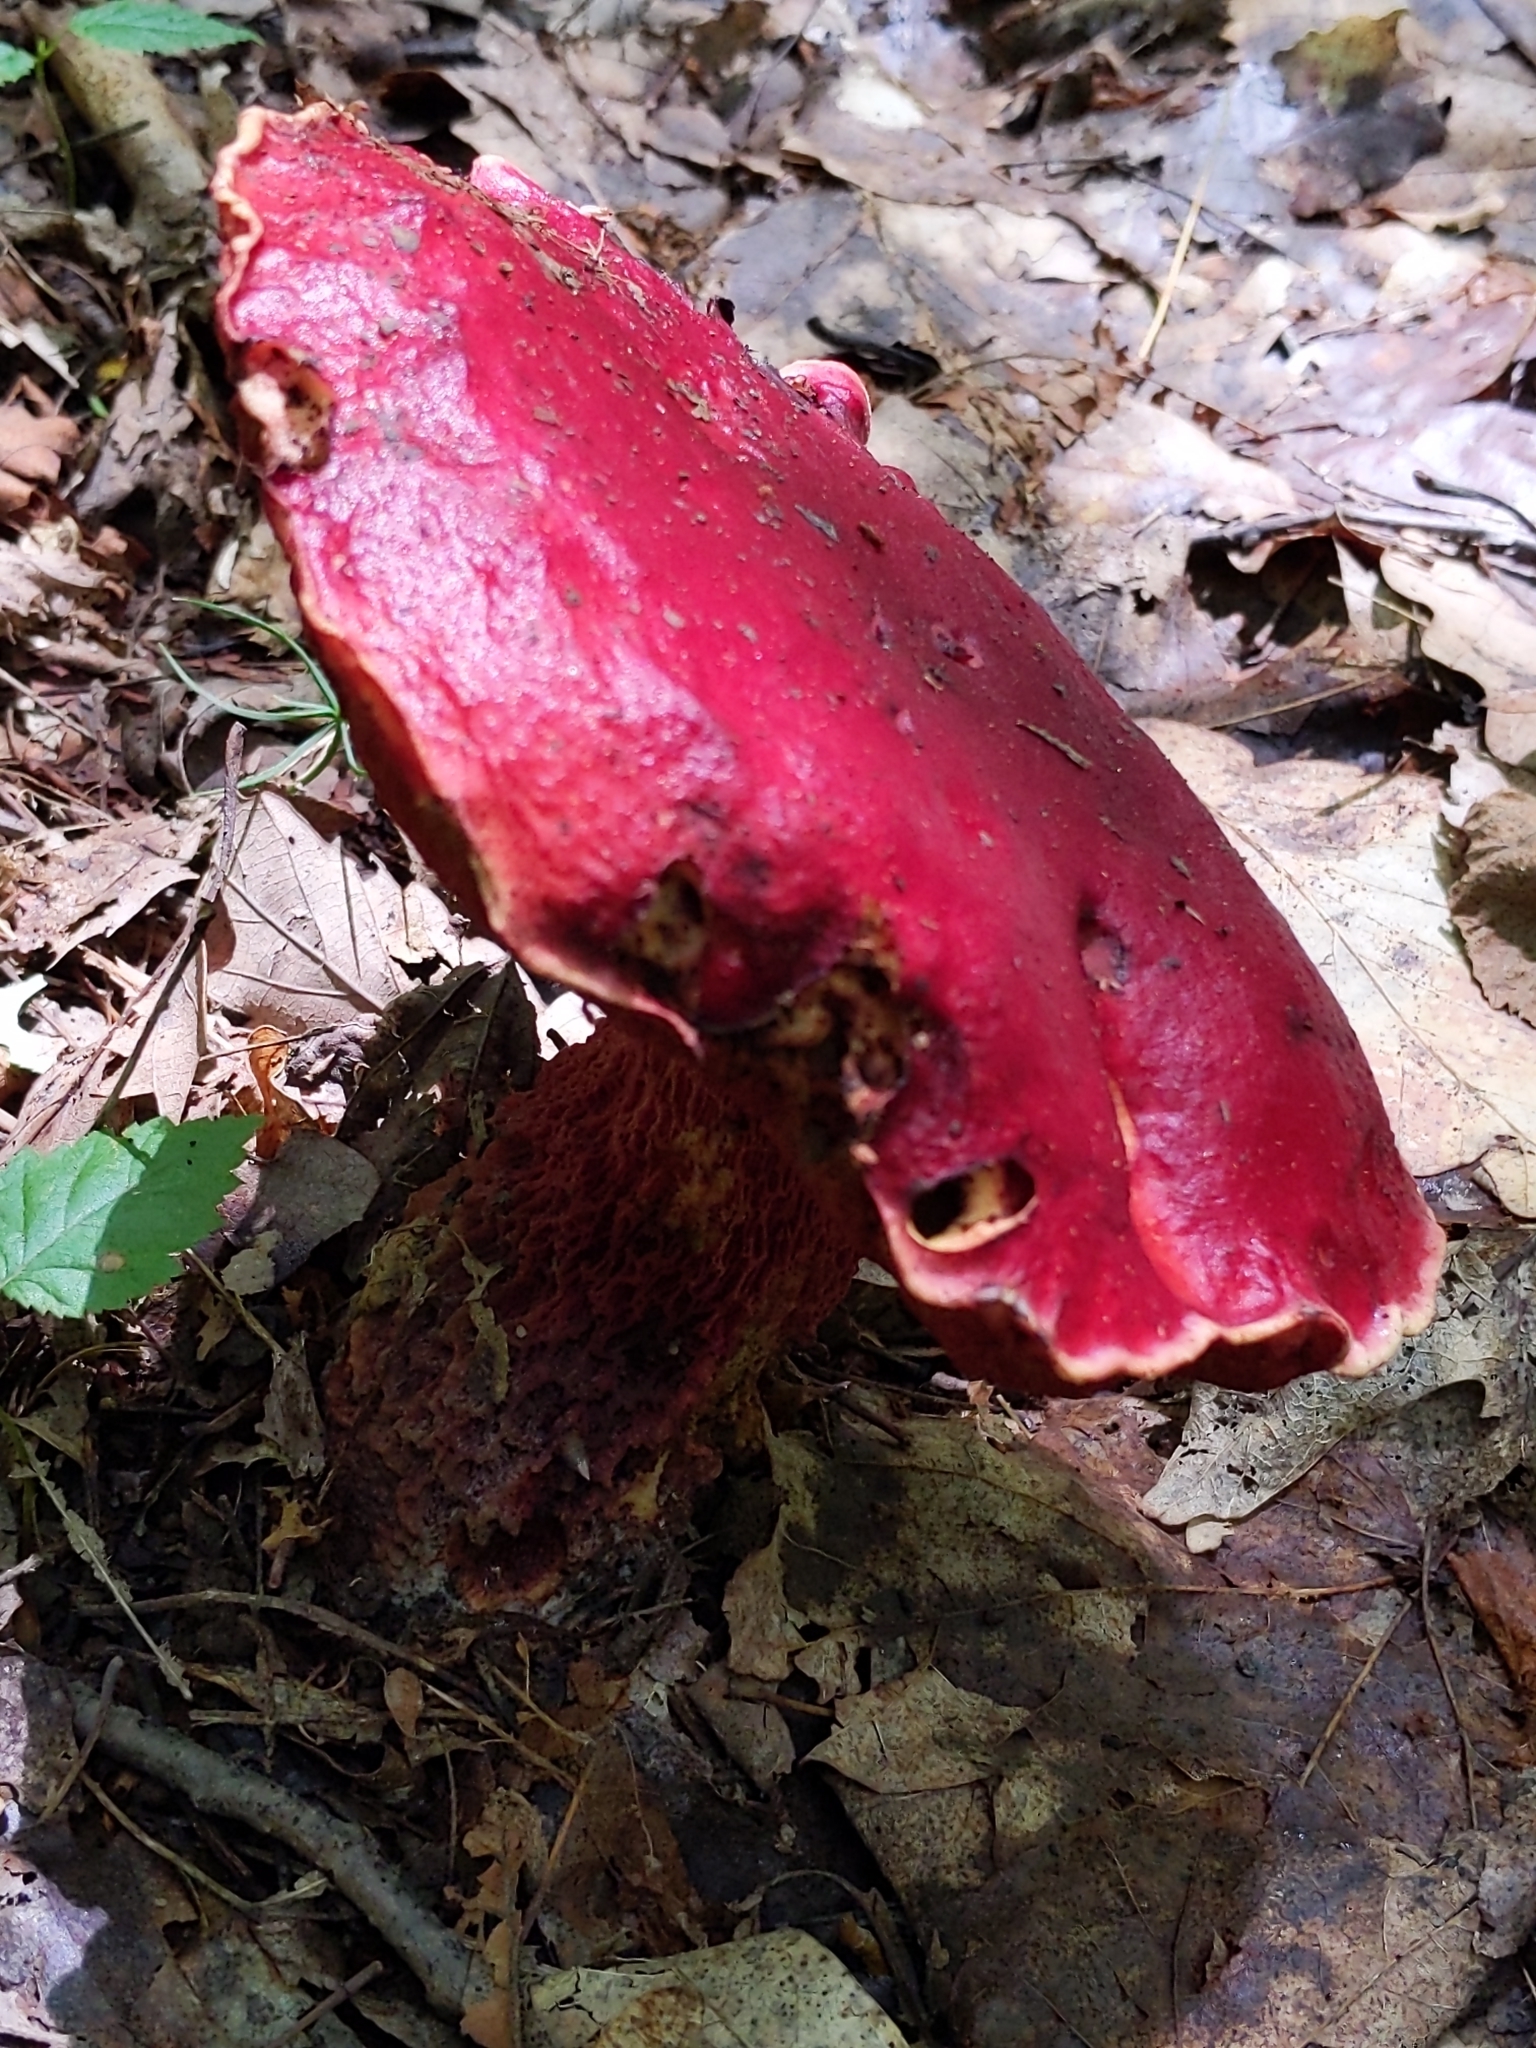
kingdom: Fungi
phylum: Basidiomycota
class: Agaricomycetes
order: Boletales
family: Boletaceae
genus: Butyriboletus
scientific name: Butyriboletus frostii
